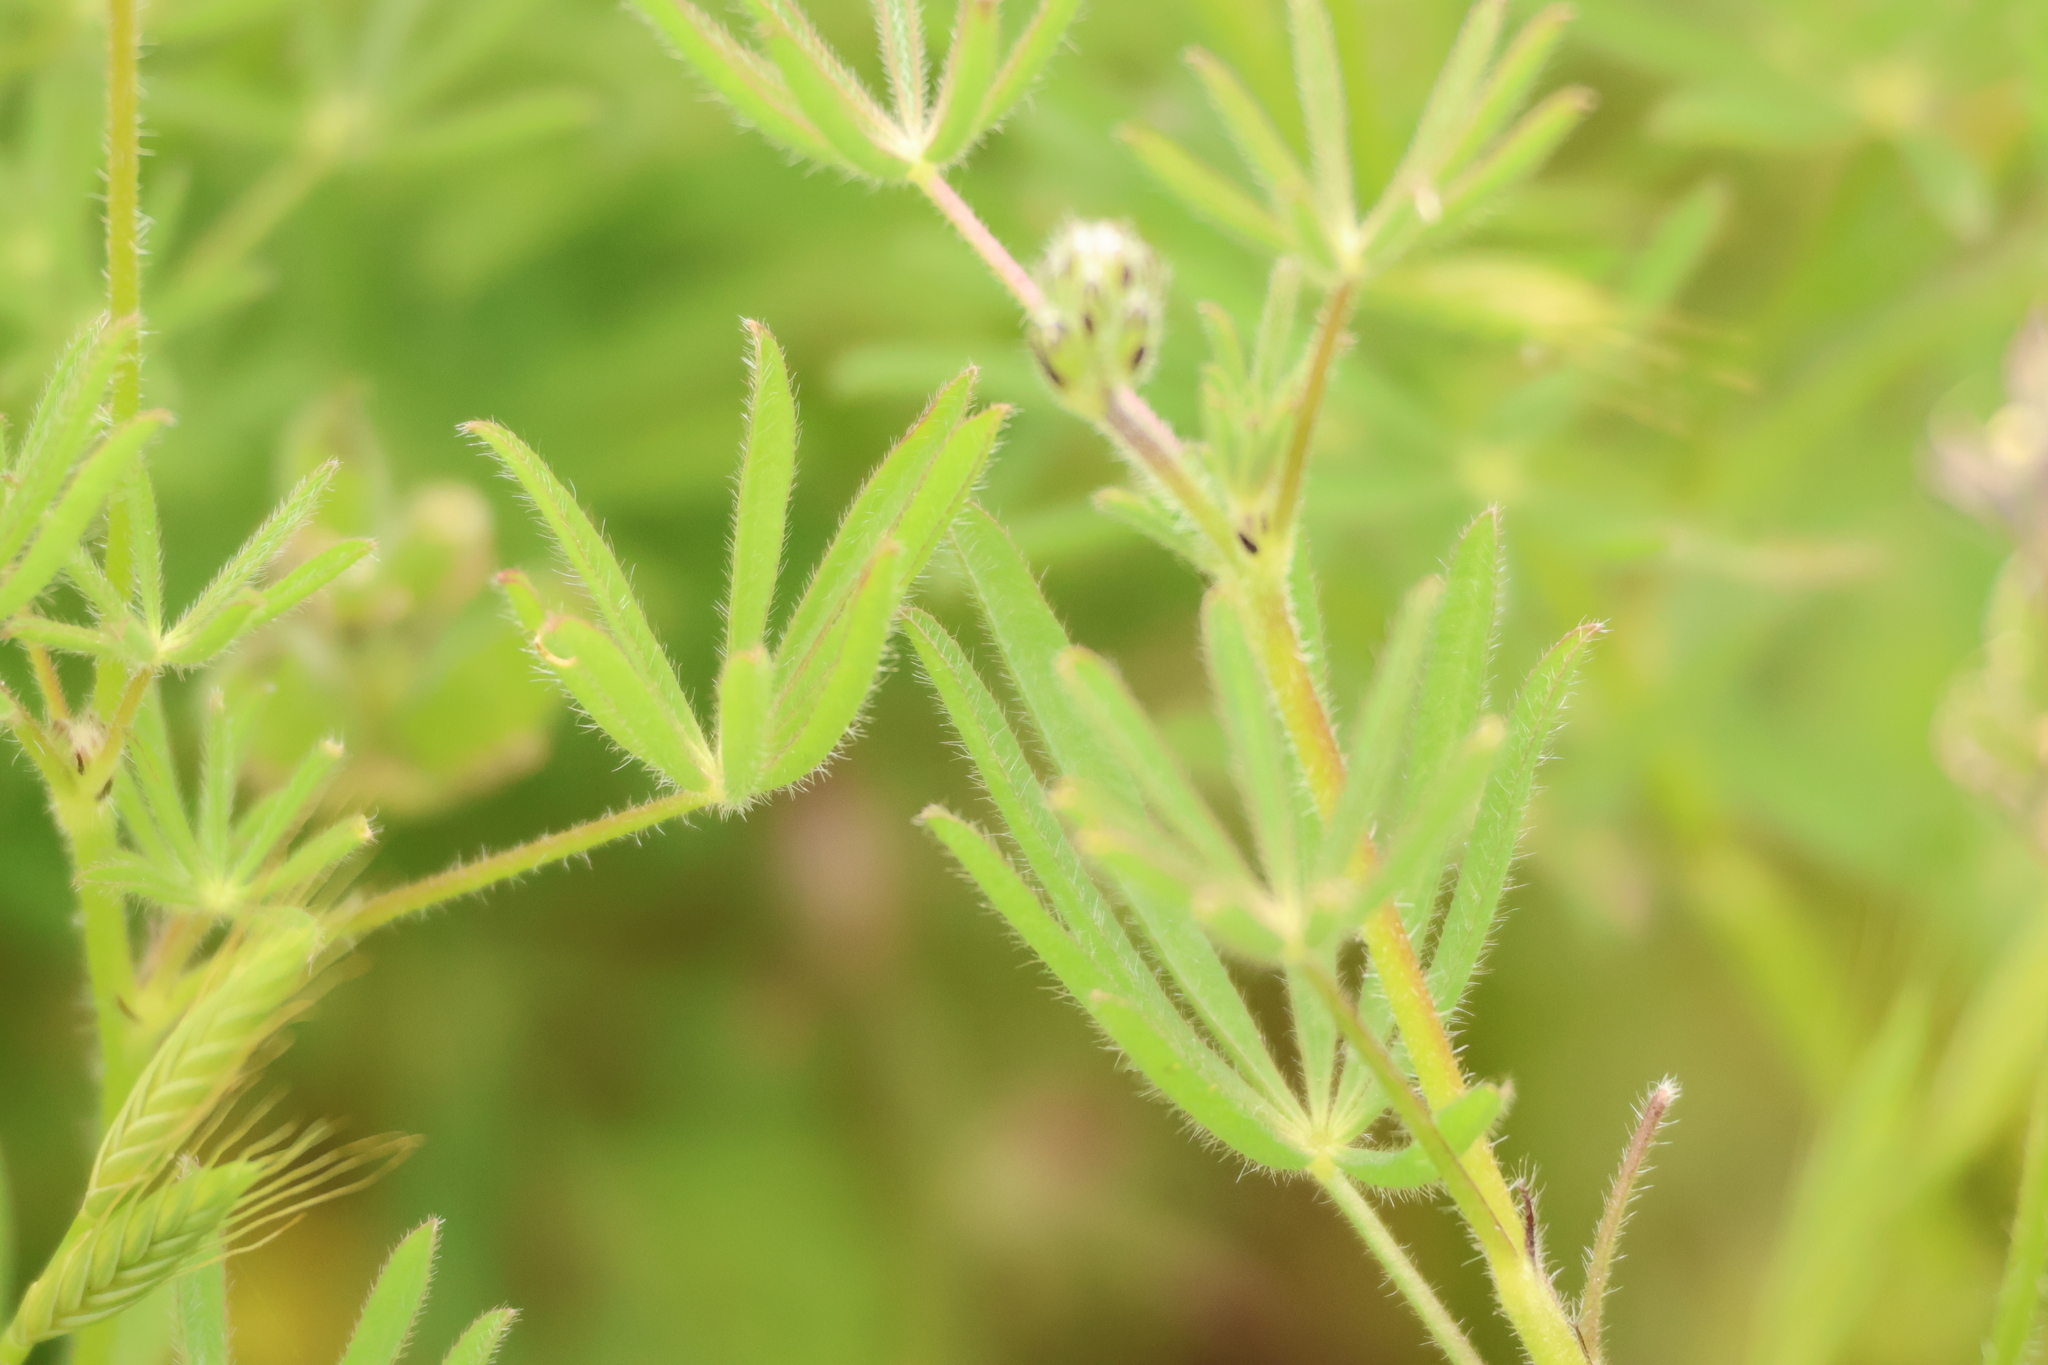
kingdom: Plantae
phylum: Tracheophyta
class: Magnoliopsida
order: Fabales
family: Fabaceae
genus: Lupinus
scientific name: Lupinus bicolor
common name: Miniature lupine
